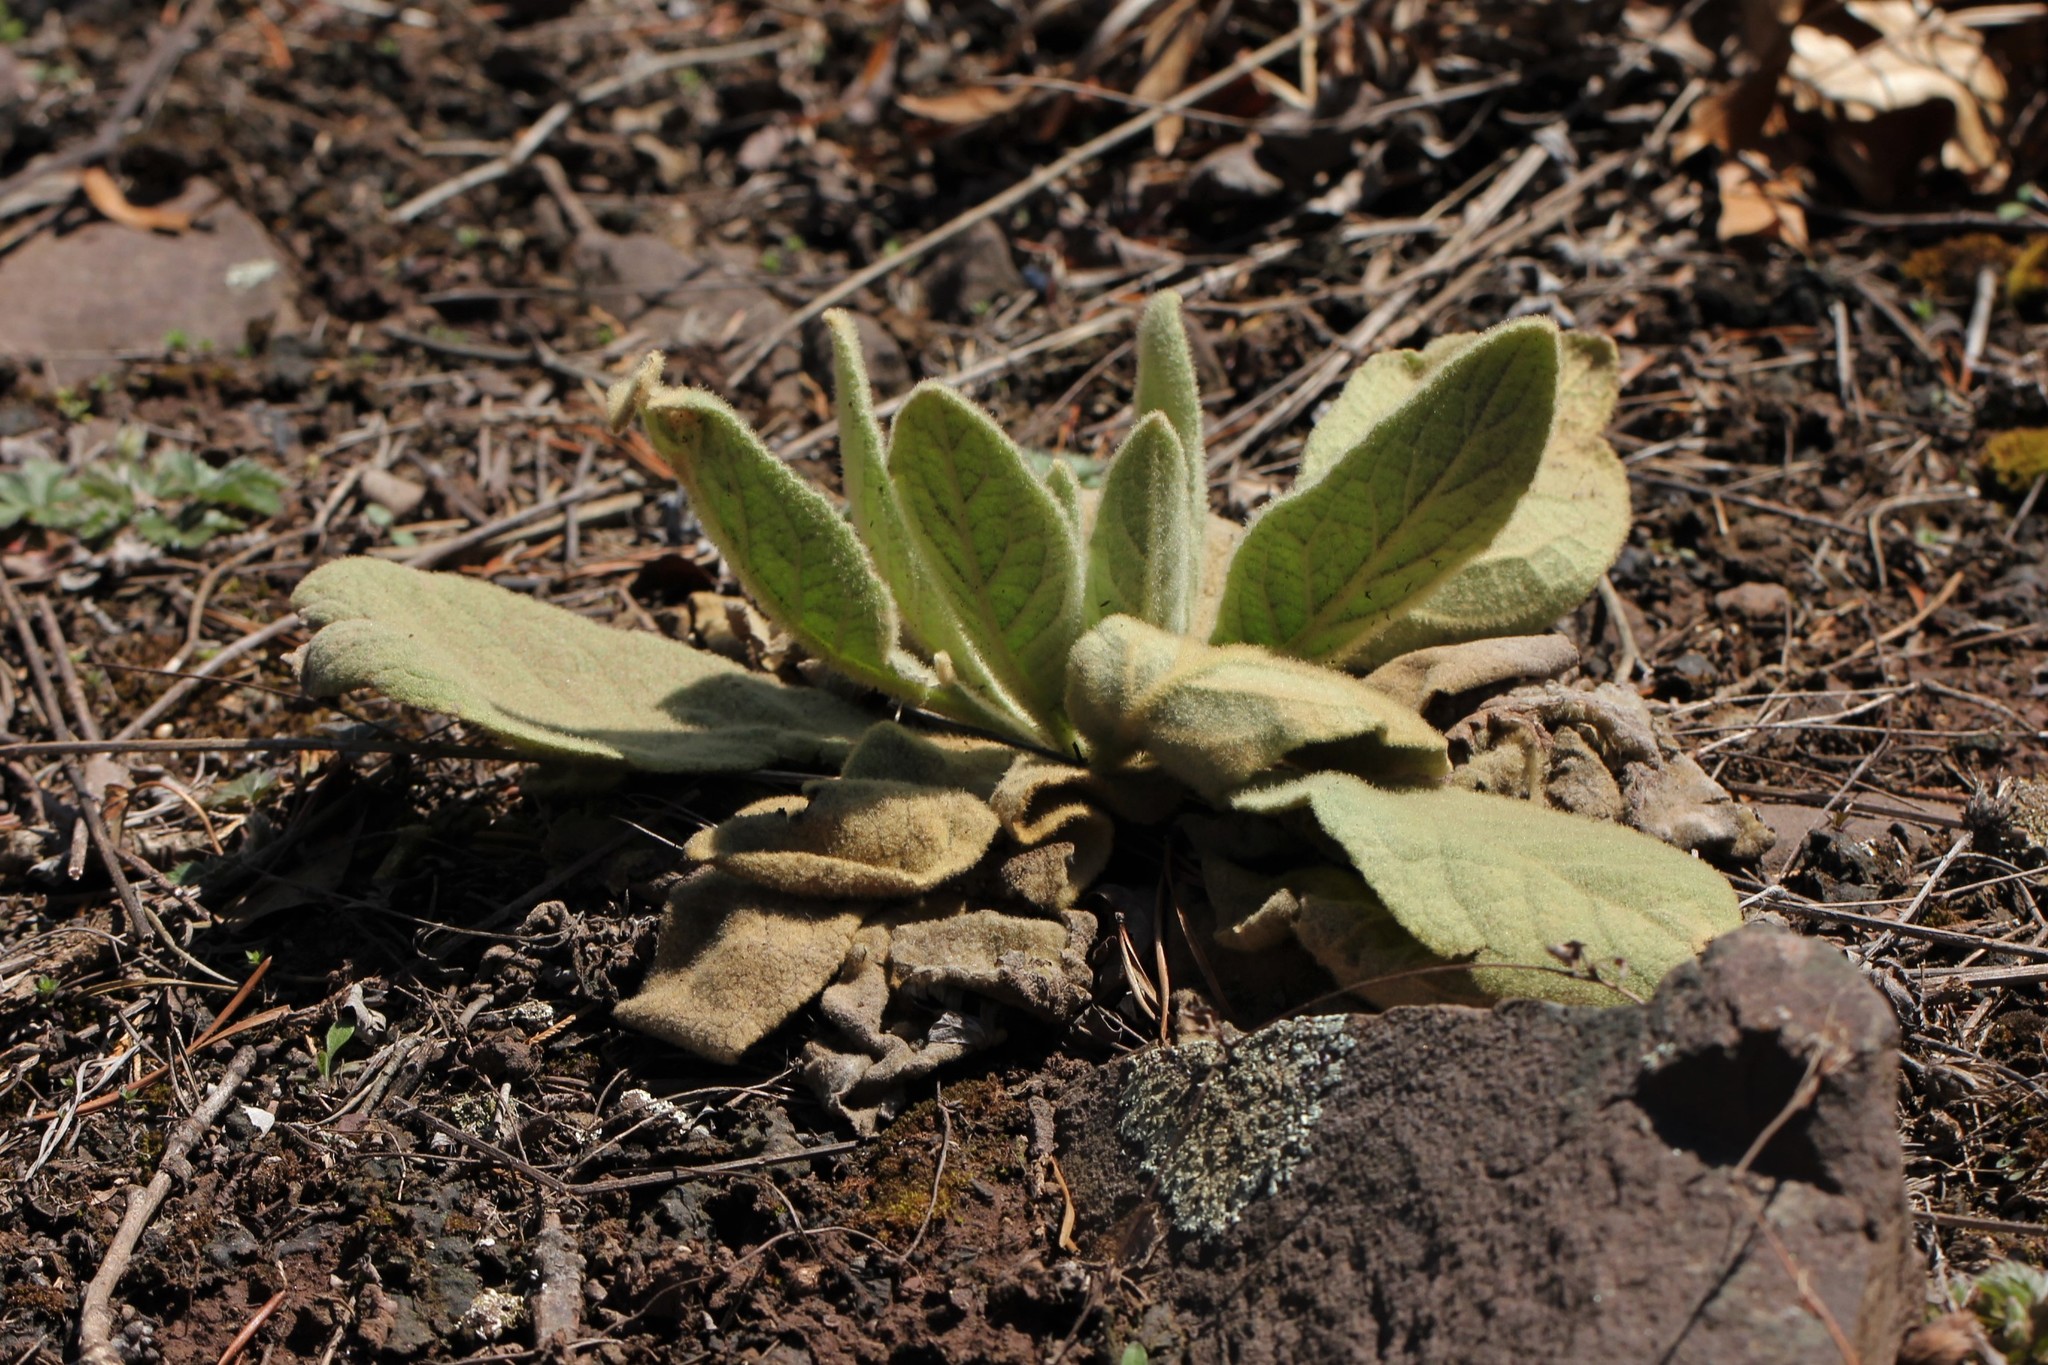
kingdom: Plantae
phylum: Tracheophyta
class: Magnoliopsida
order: Lamiales
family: Scrophulariaceae
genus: Verbascum
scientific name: Verbascum thapsus
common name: Common mullein
